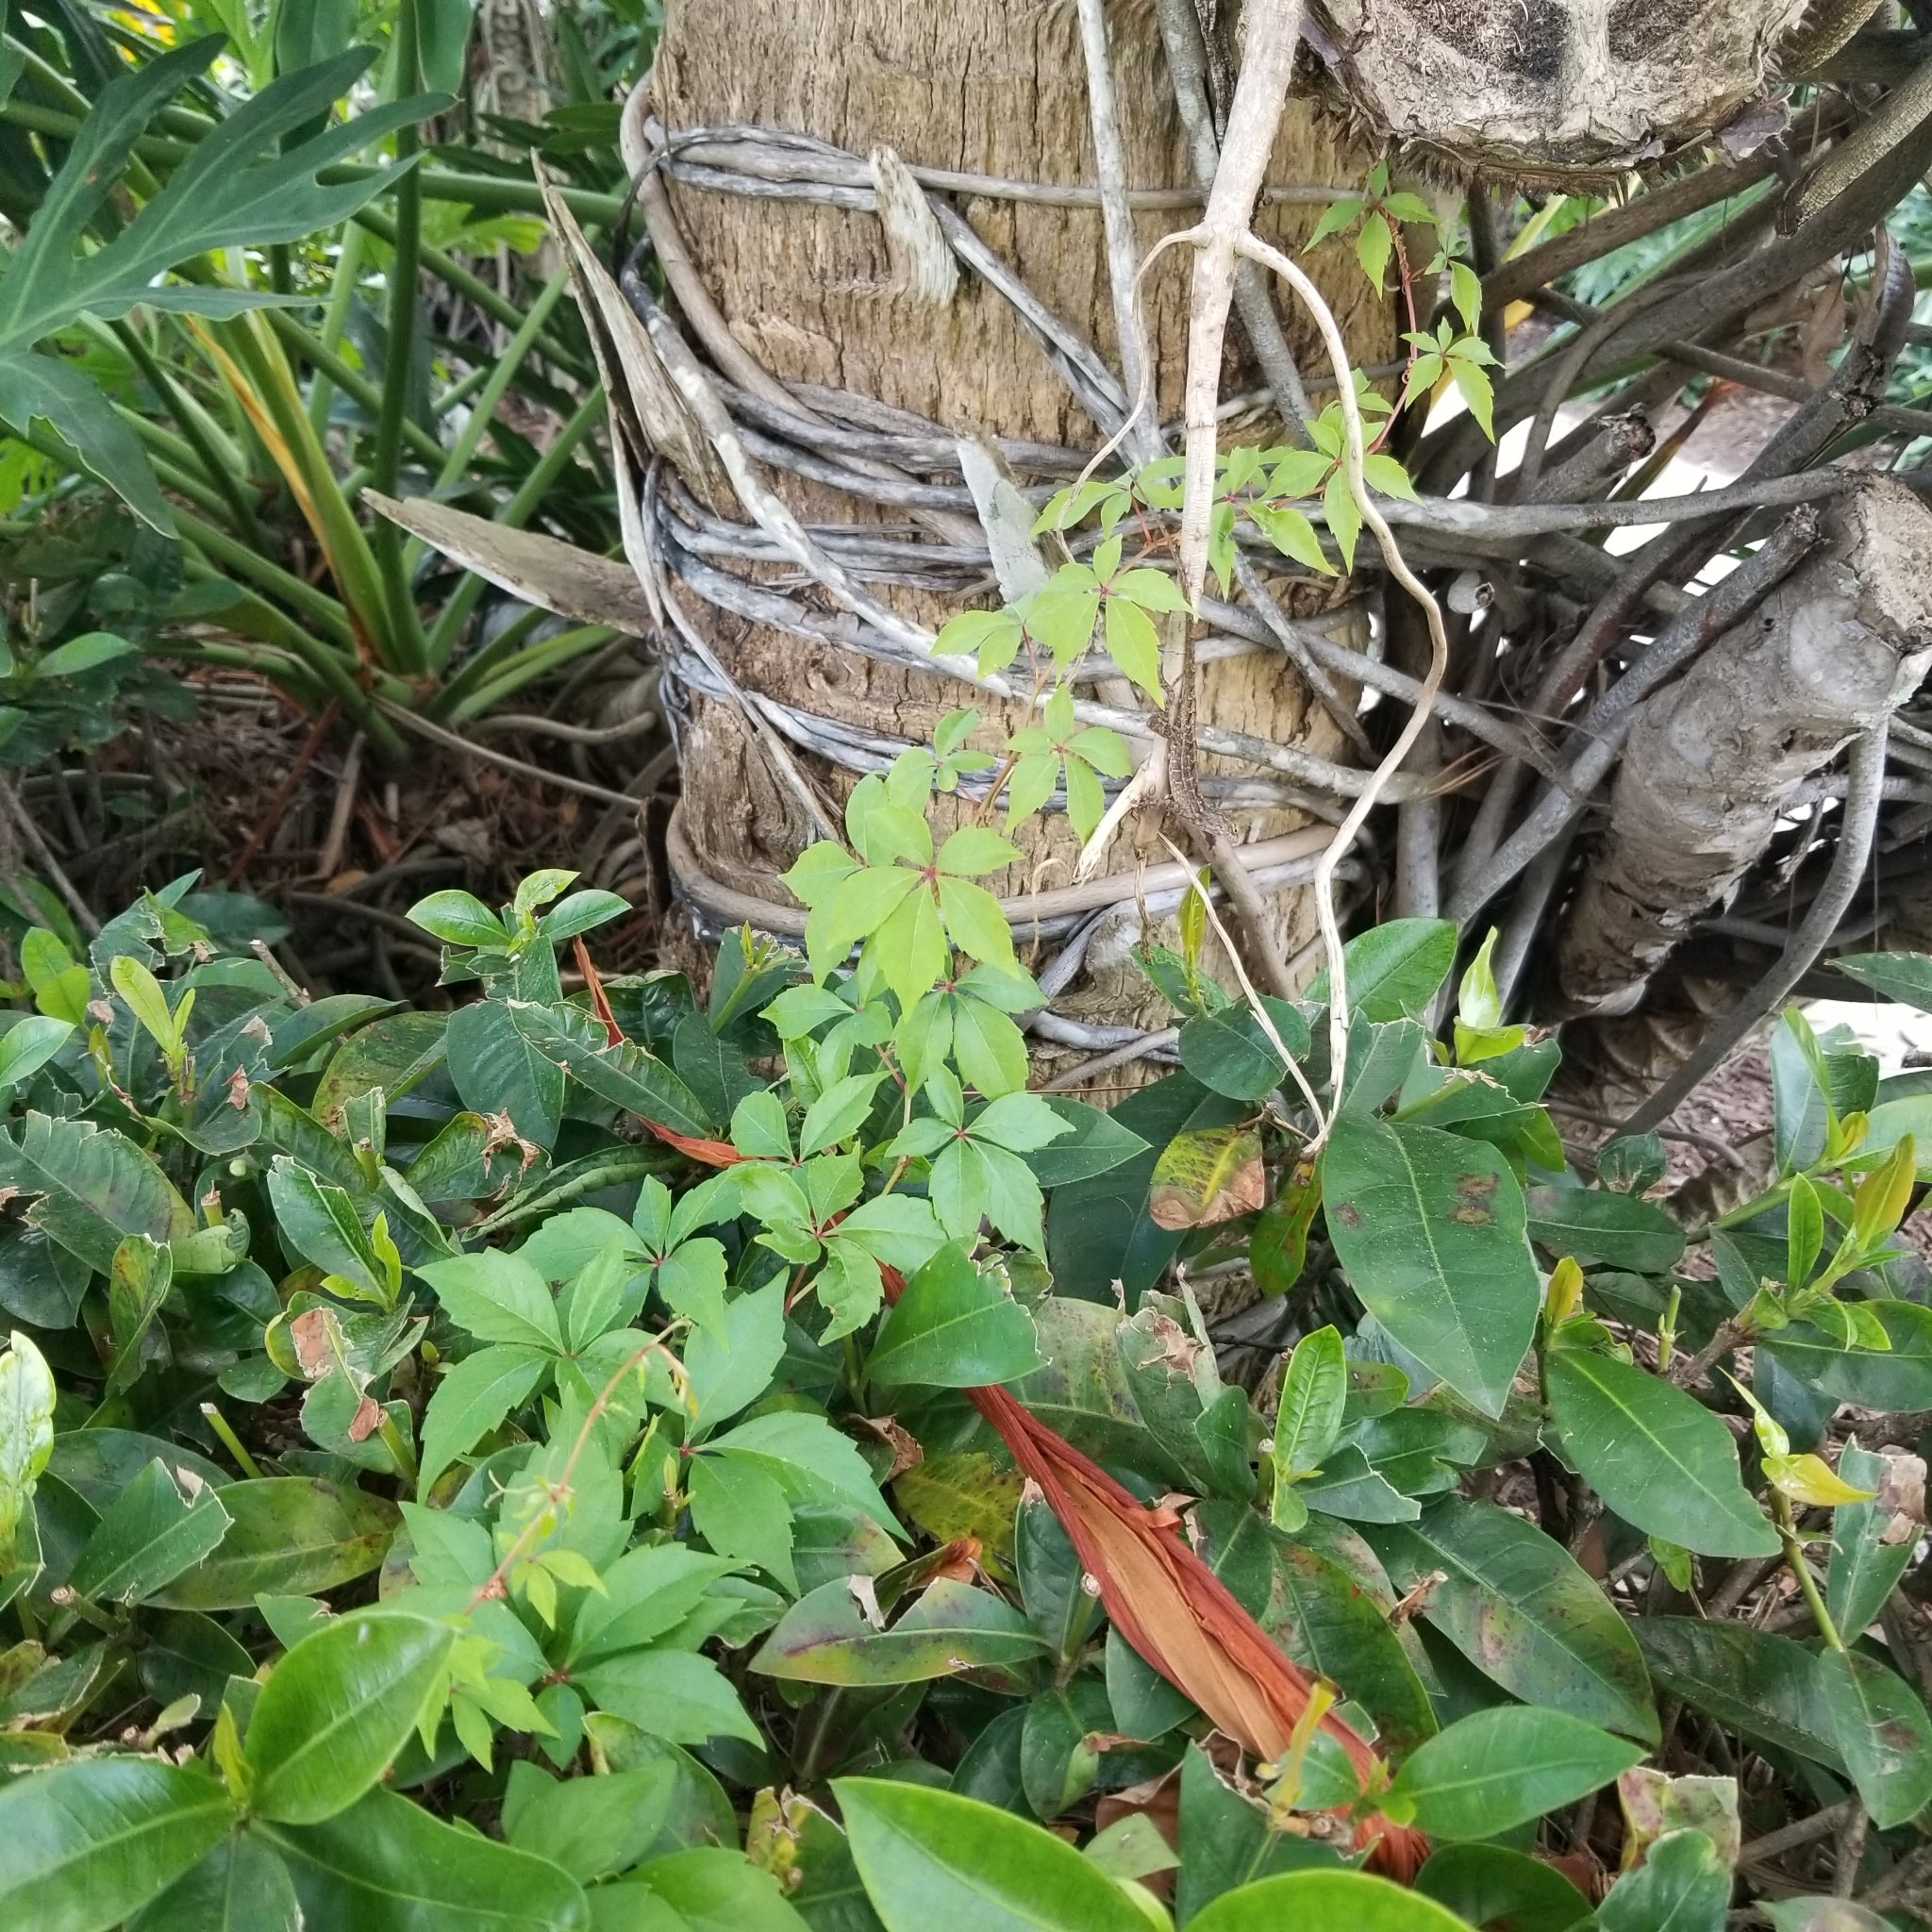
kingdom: Plantae
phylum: Tracheophyta
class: Magnoliopsida
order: Vitales
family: Vitaceae
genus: Parthenocissus
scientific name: Parthenocissus quinquefolia
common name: Virginia-creeper
